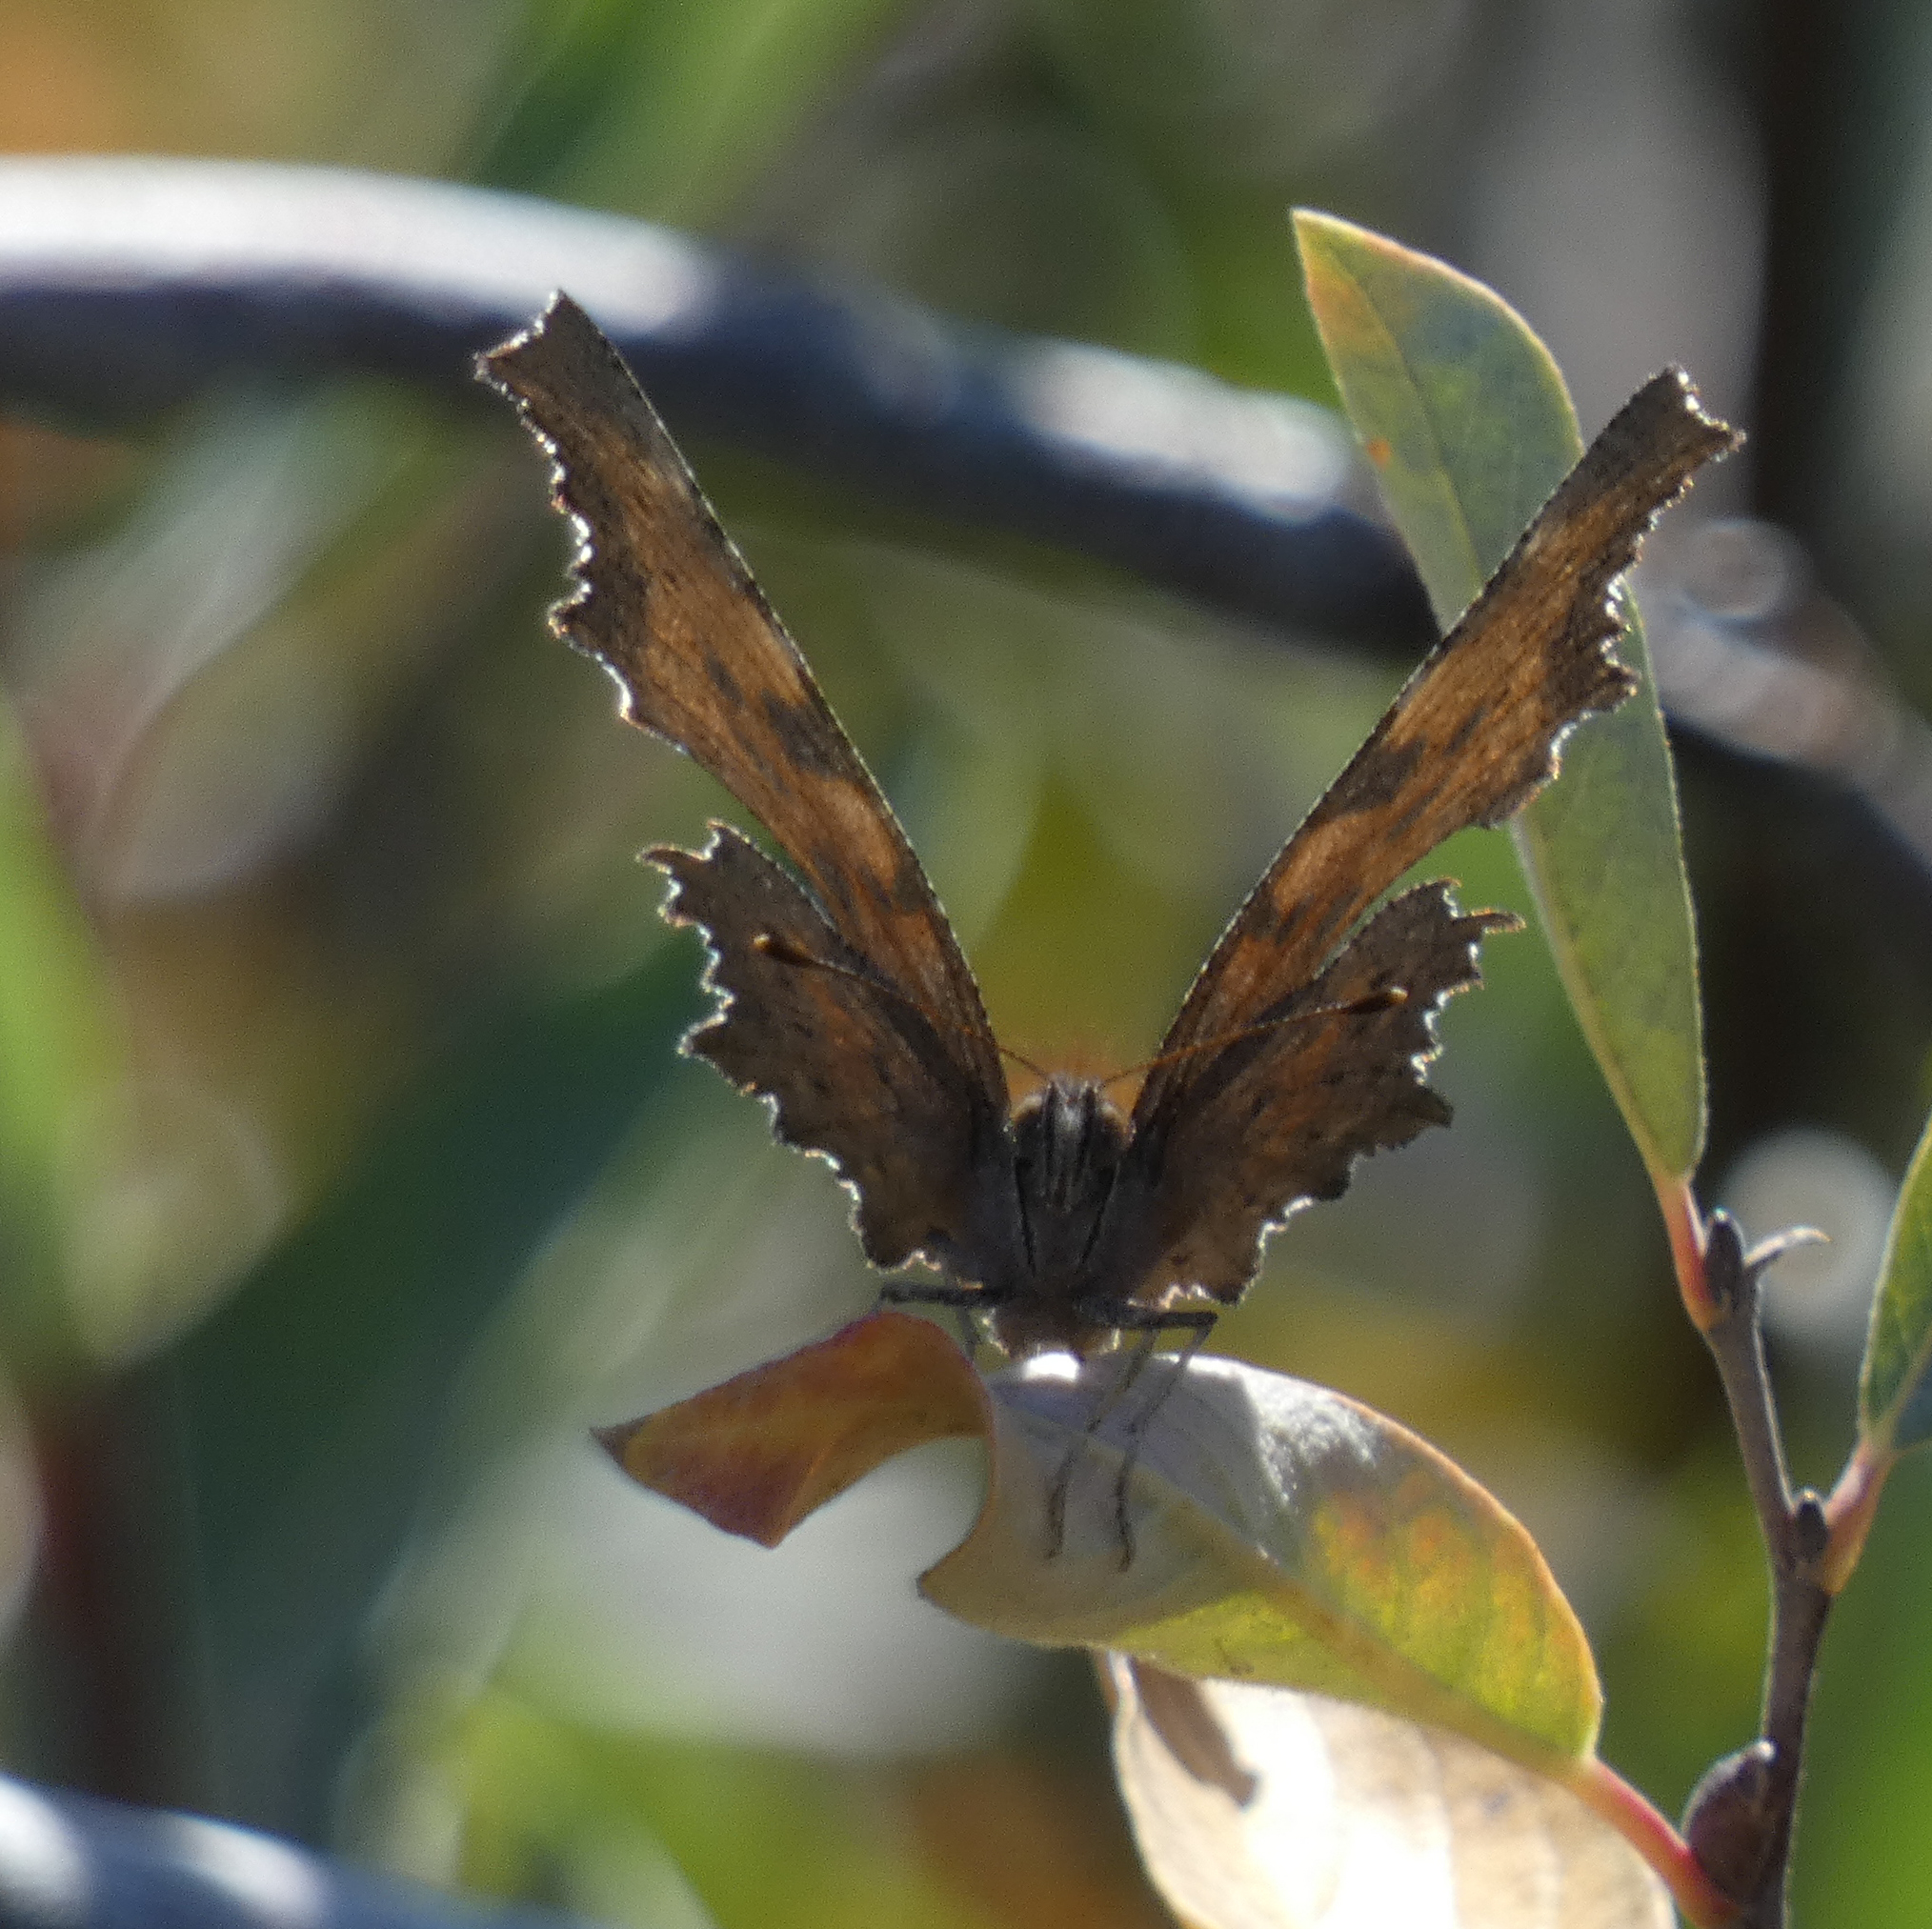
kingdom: Animalia
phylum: Arthropoda
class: Insecta
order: Lepidoptera
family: Nymphalidae
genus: Polygonia
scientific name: Polygonia faunus
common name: Green comma
